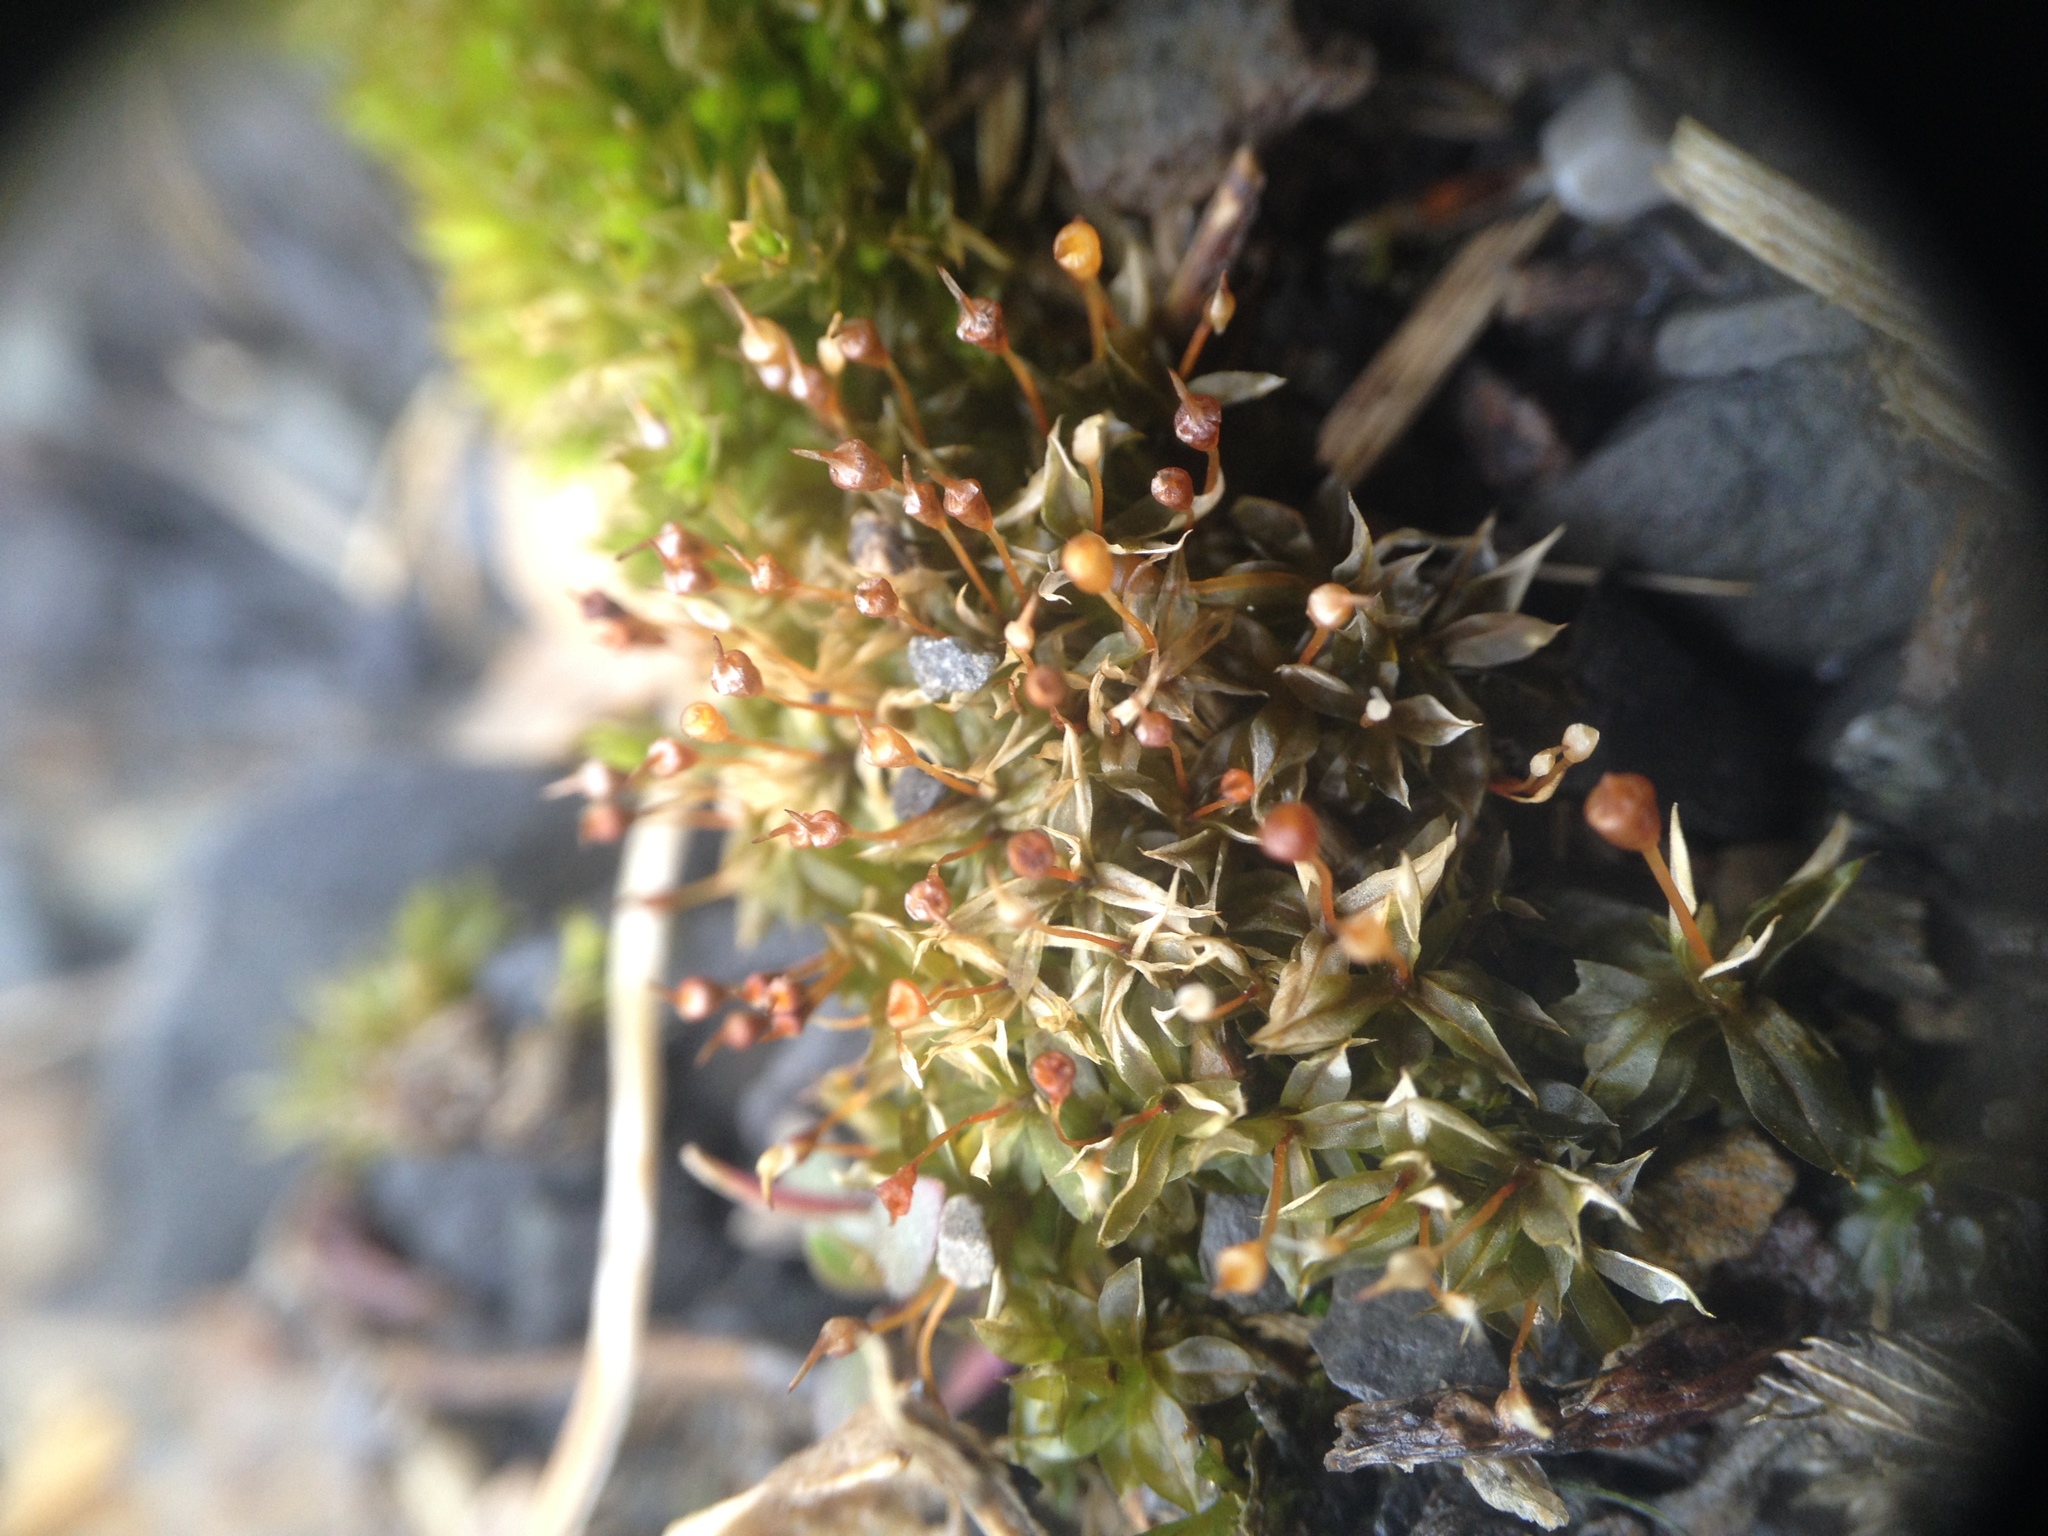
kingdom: Plantae
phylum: Bryophyta
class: Bryopsida
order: Pottiales
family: Pottiaceae
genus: Tortula
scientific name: Tortula truncata
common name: Truncated screw moss
